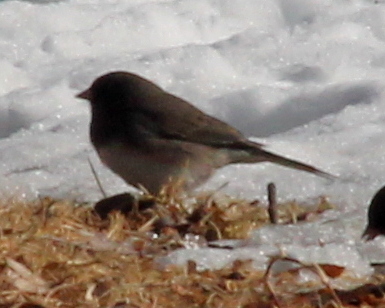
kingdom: Animalia
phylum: Chordata
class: Aves
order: Passeriformes
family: Passerellidae
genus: Junco
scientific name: Junco hyemalis
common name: Dark-eyed junco
